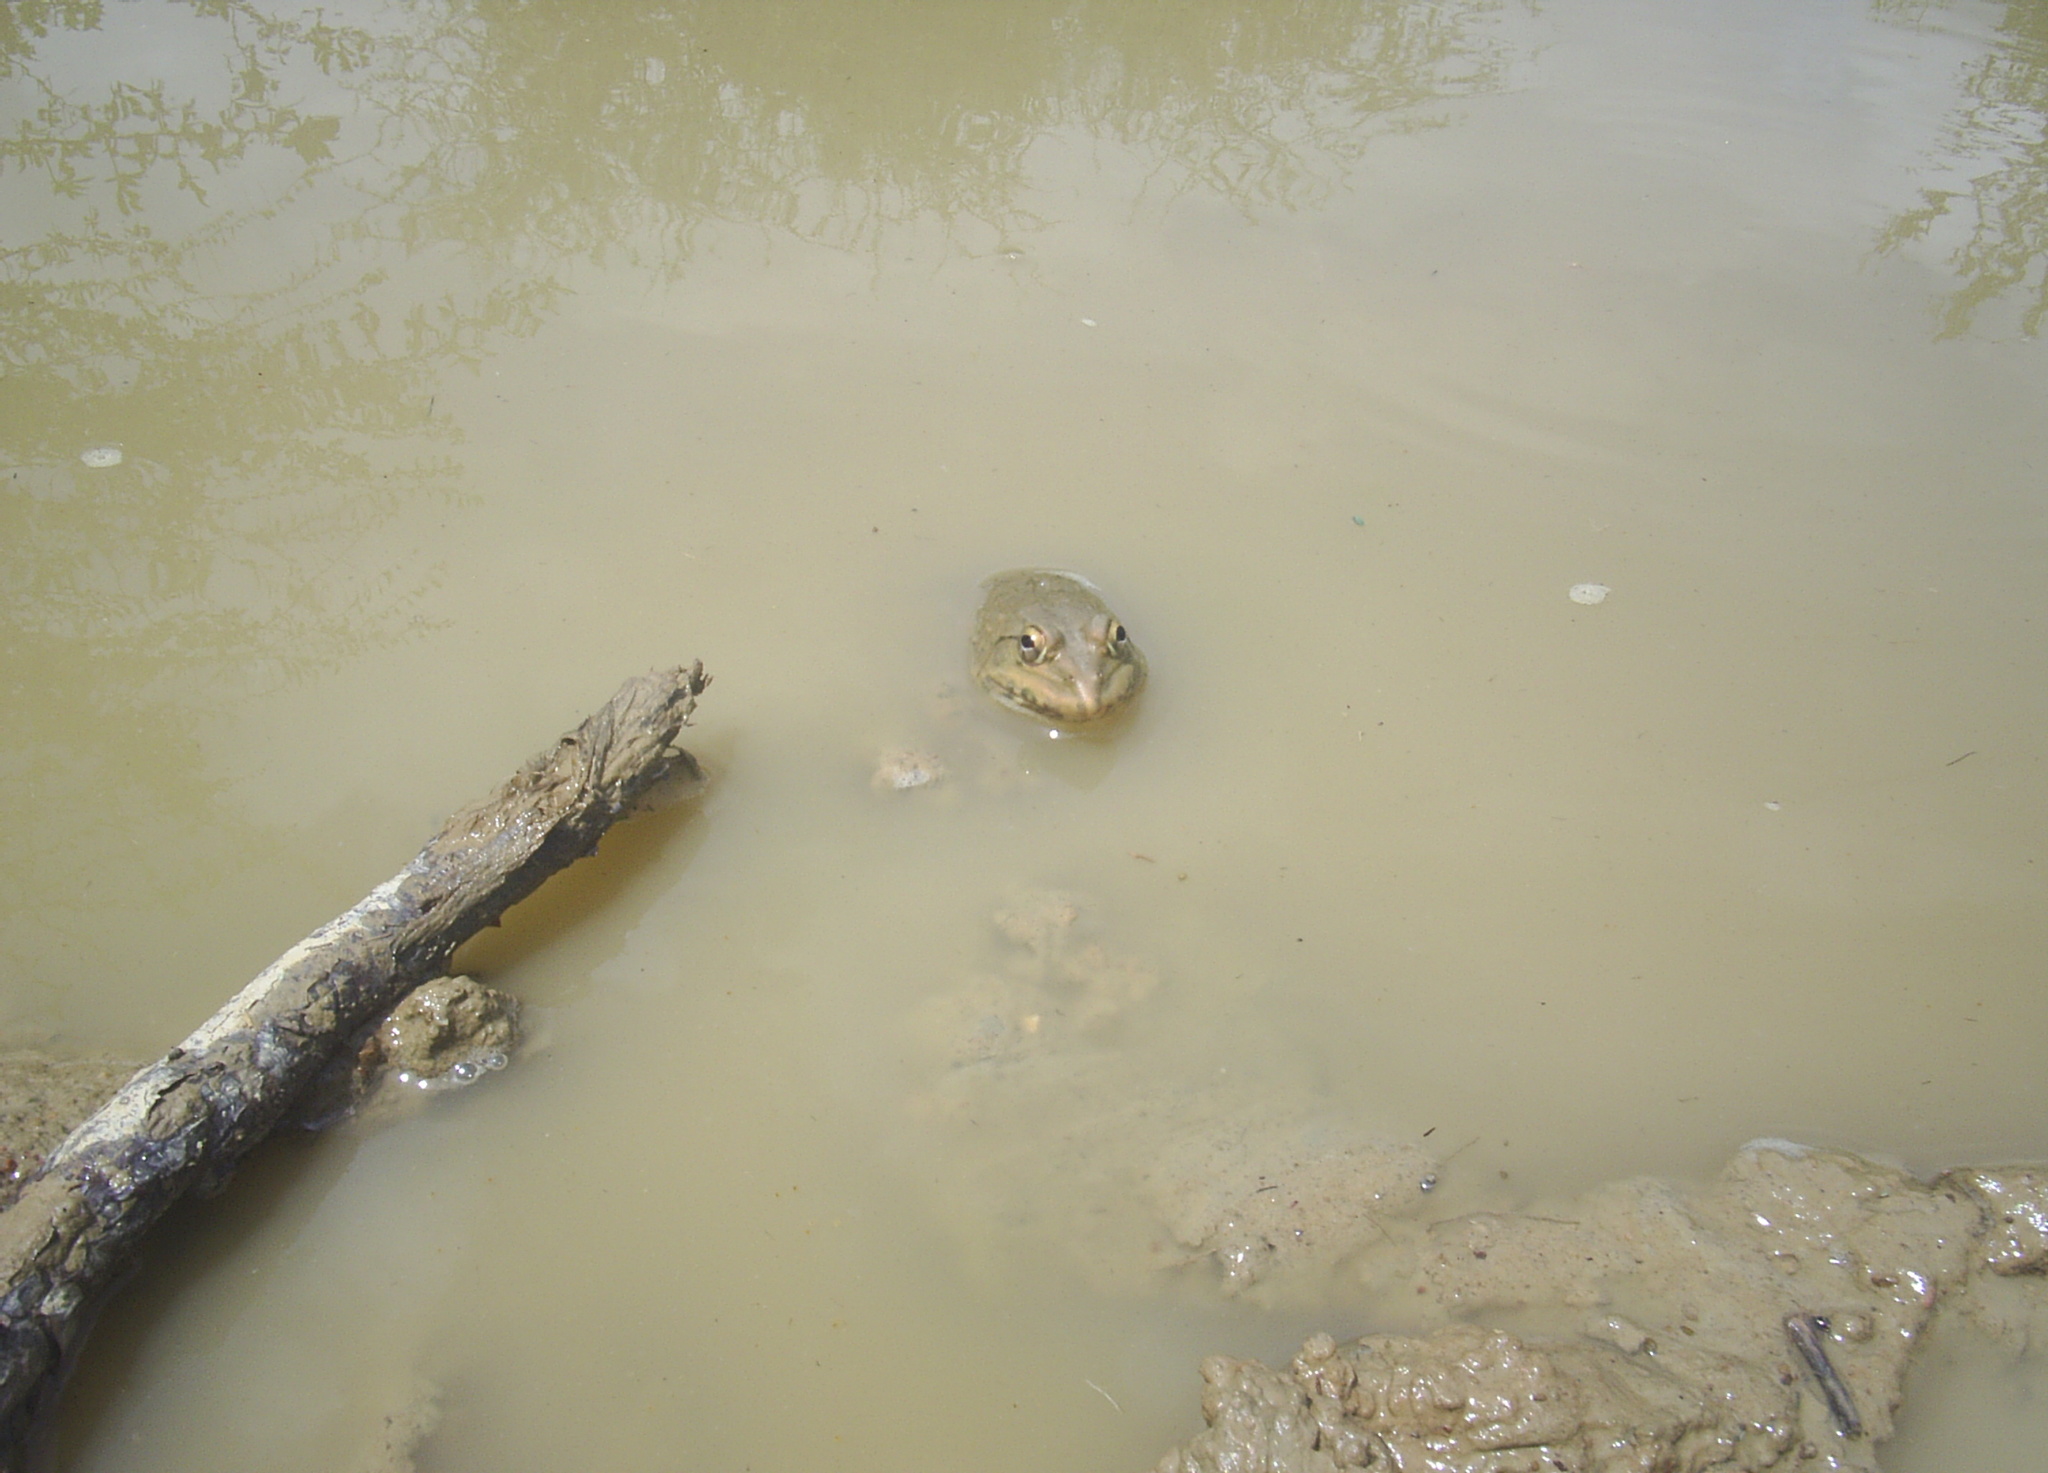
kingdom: Animalia
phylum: Chordata
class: Amphibia
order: Anura
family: Dicroglossidae
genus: Hoplobatrachus
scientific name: Hoplobatrachus tigerinus
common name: Indian bullfrog
